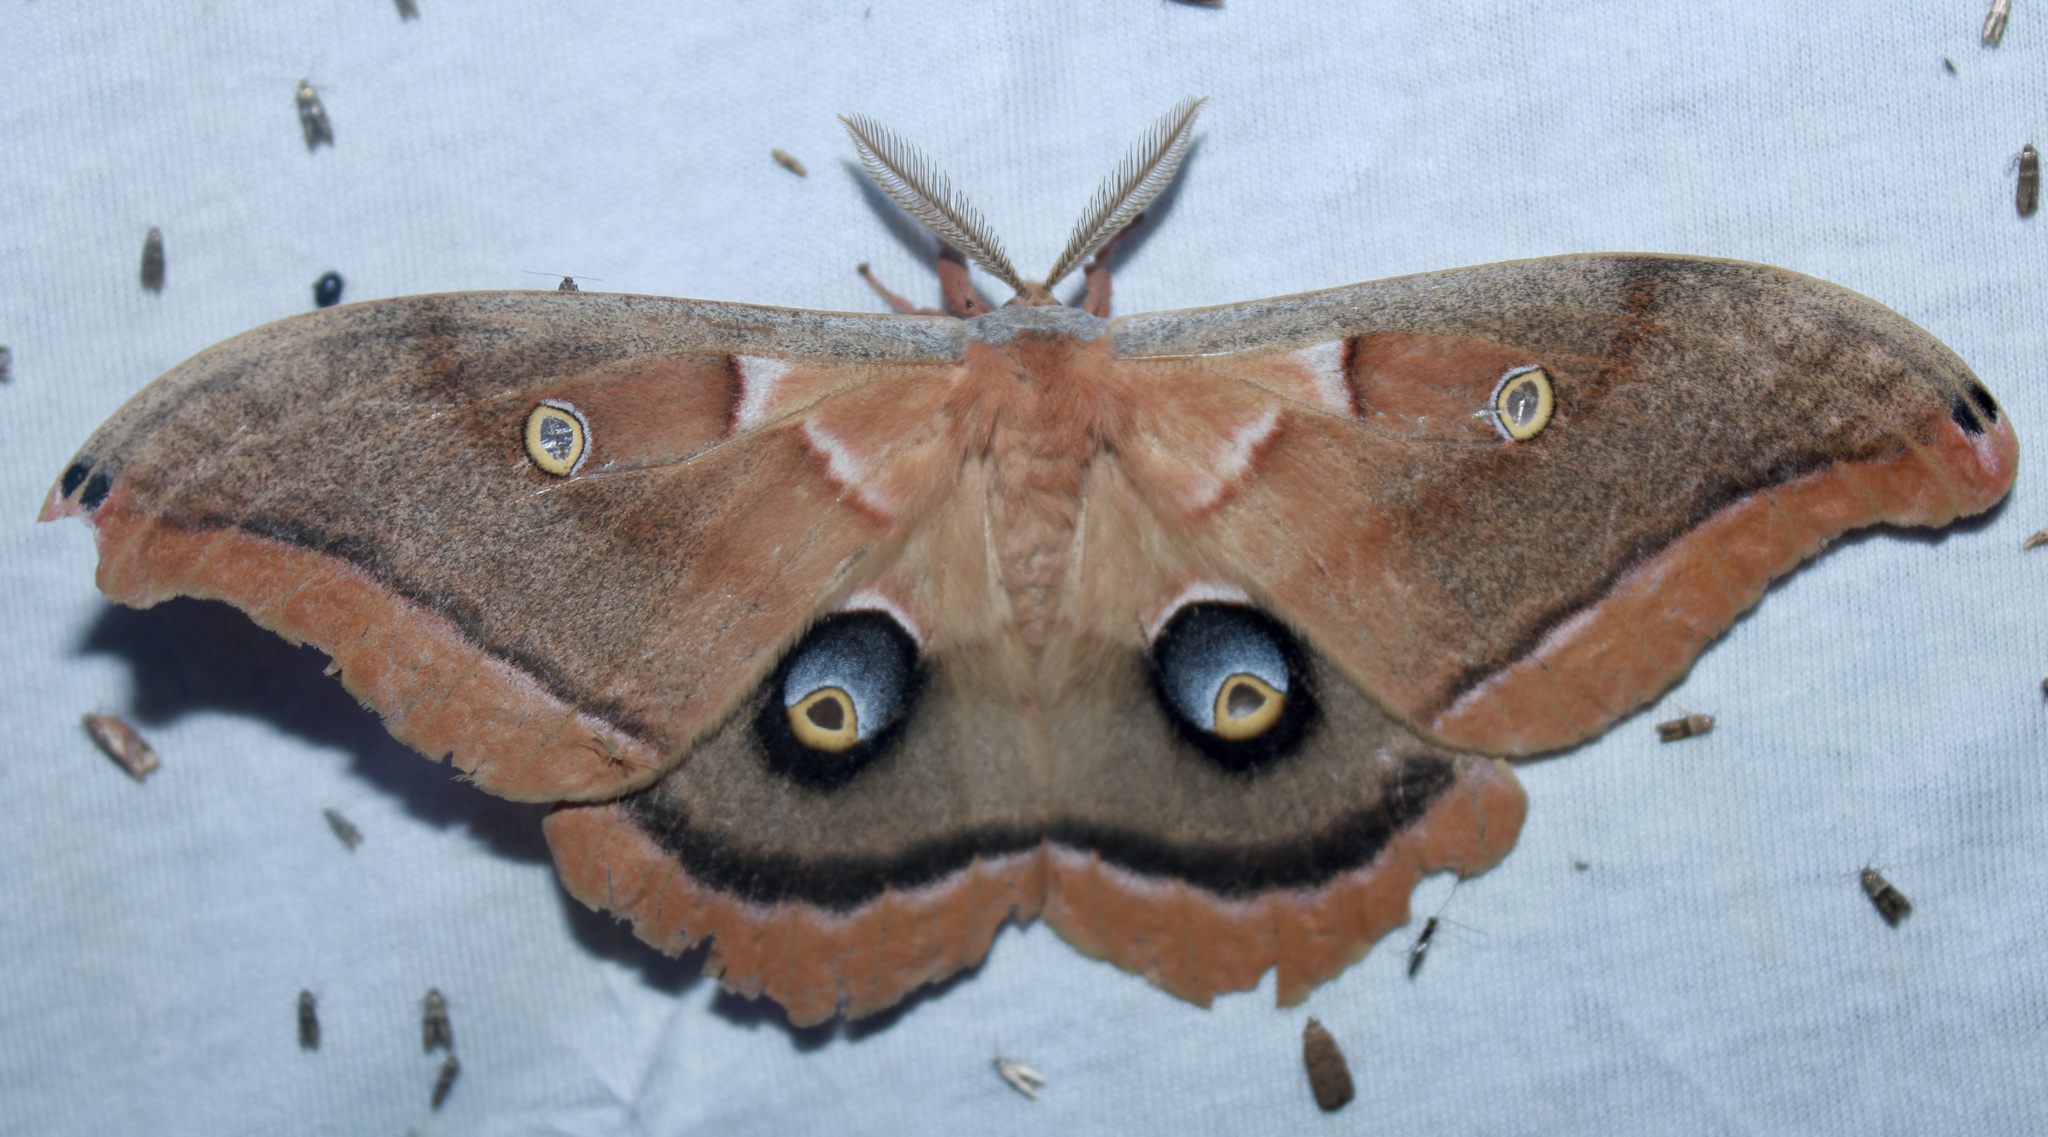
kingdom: Animalia
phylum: Arthropoda
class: Insecta
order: Lepidoptera
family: Saturniidae
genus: Antheraea
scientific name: Antheraea polyphemus
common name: Polyphemus moth
